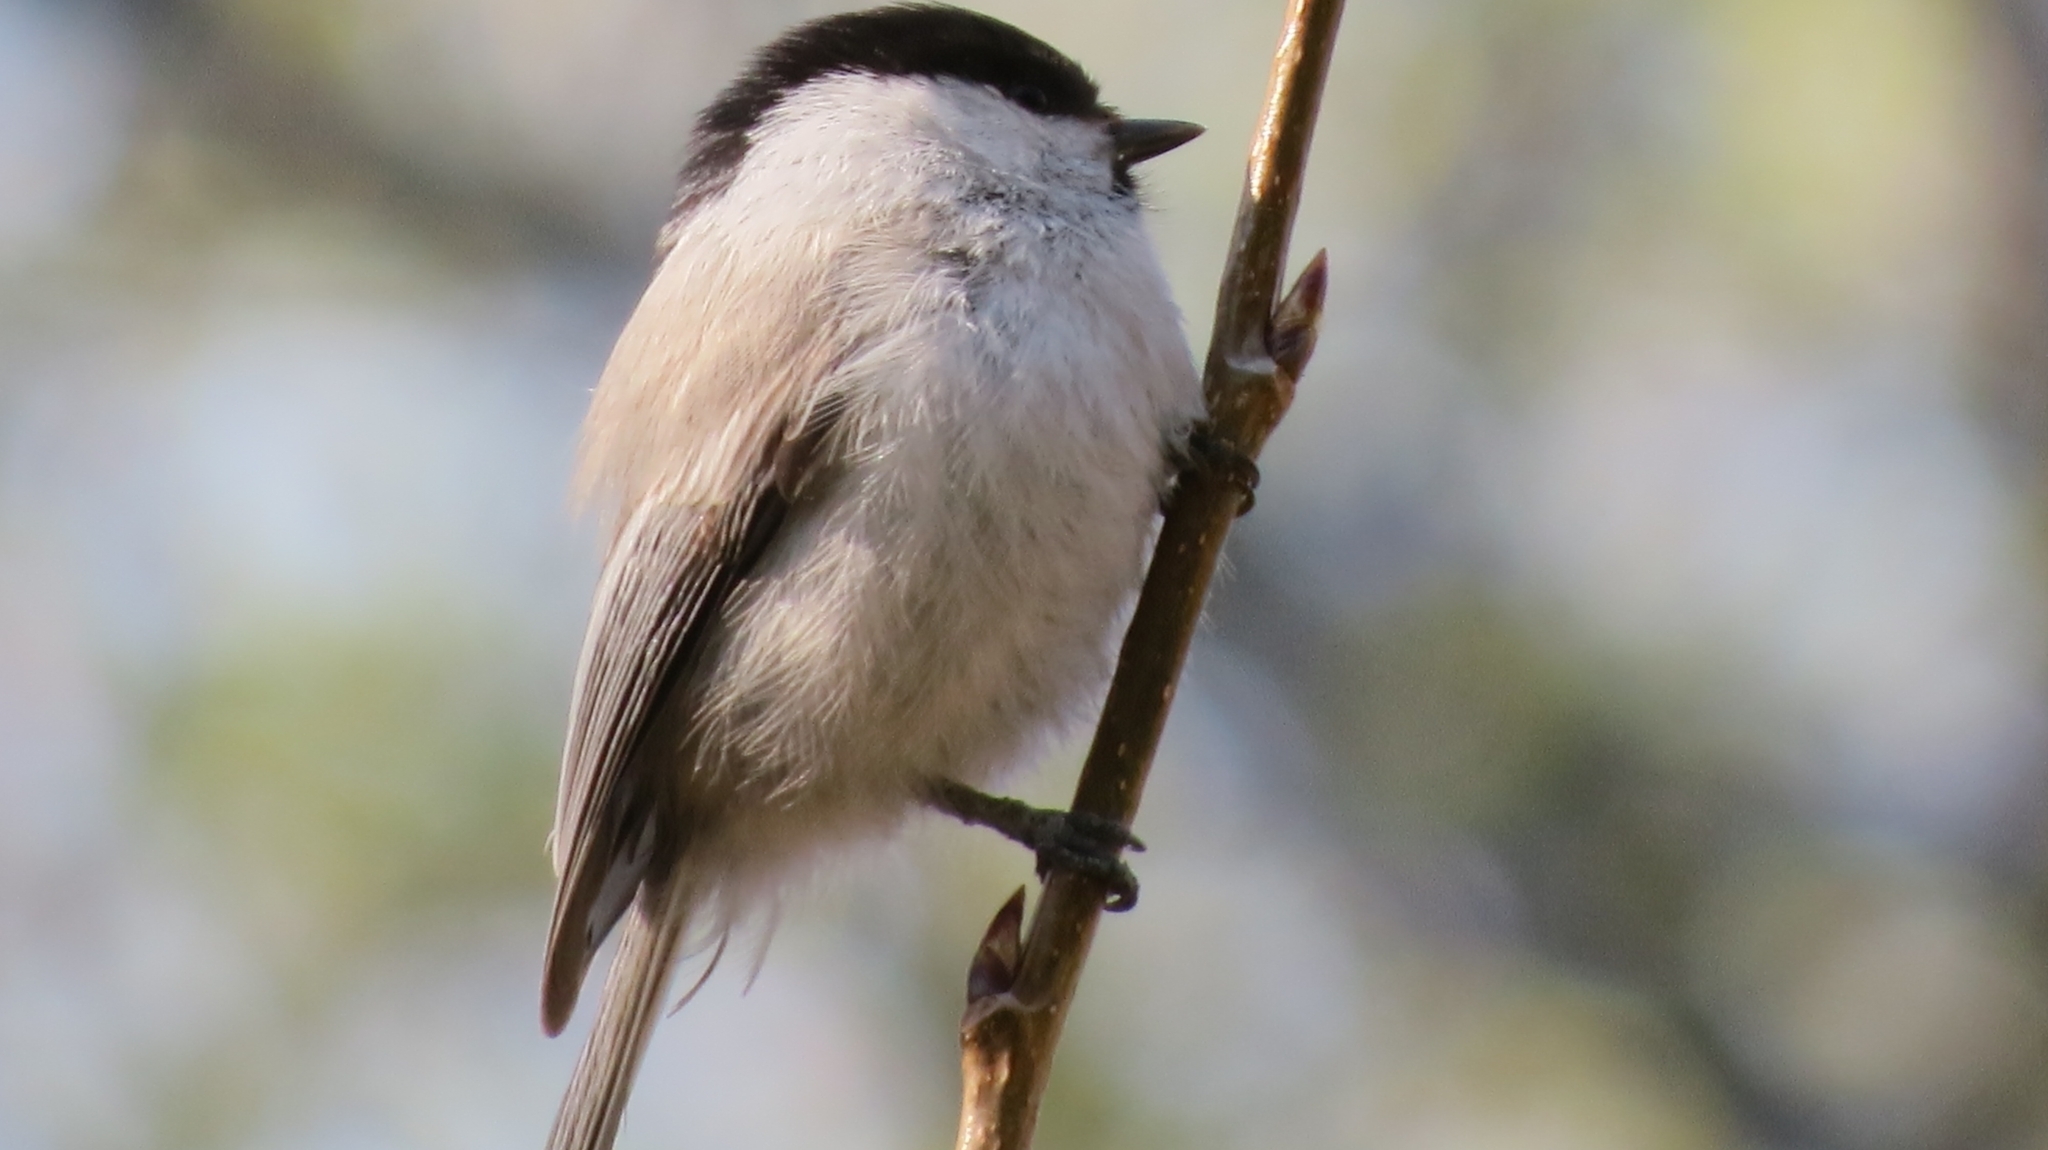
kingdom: Animalia
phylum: Chordata
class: Aves
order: Passeriformes
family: Paridae
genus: Poecile
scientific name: Poecile montanus
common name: Willow tit
